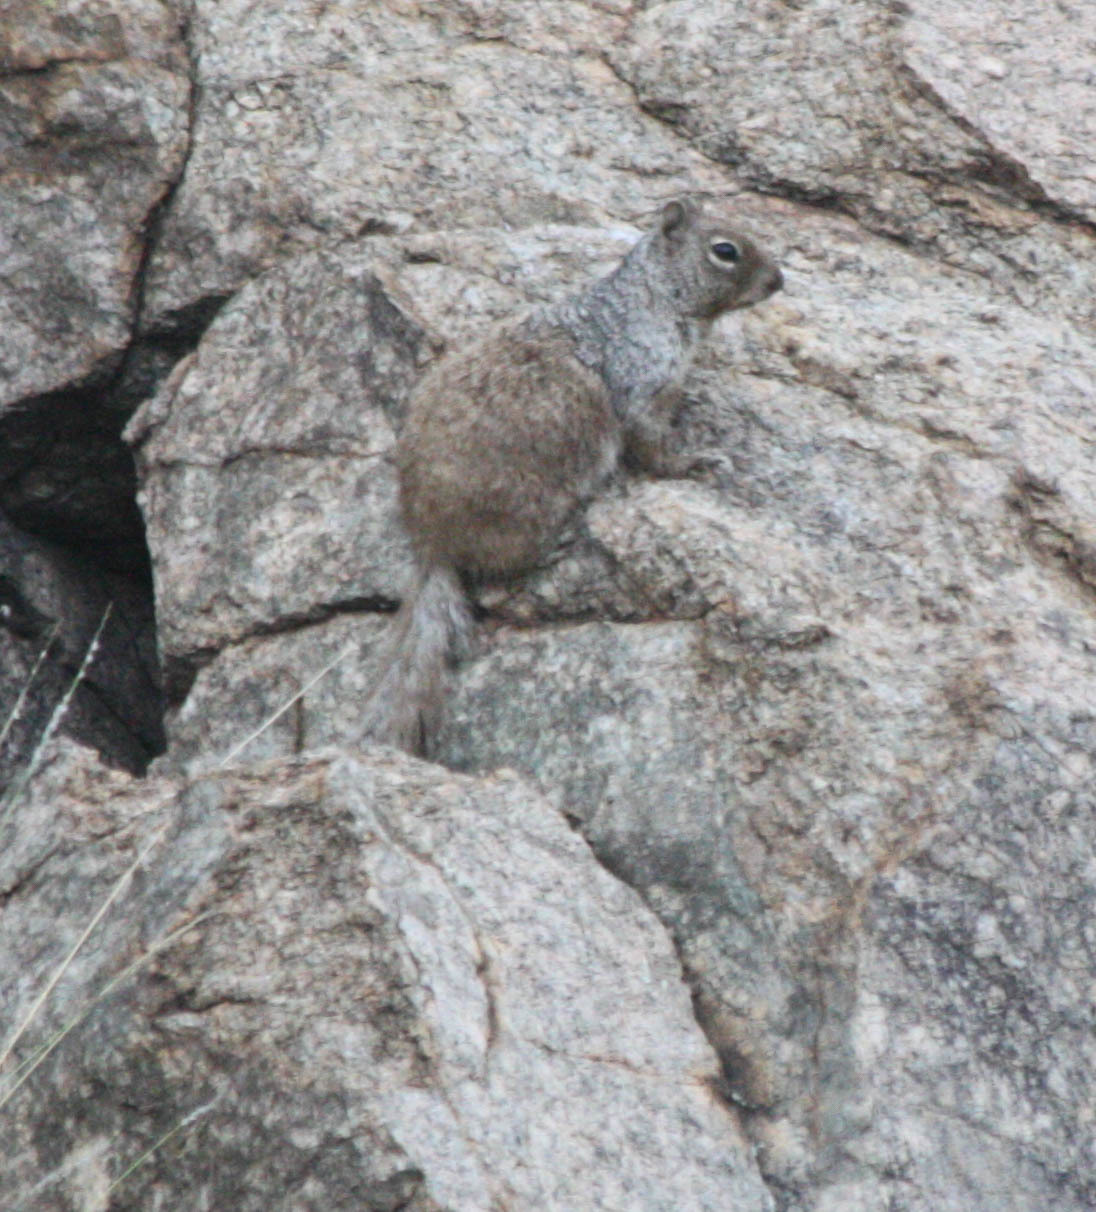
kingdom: Animalia
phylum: Chordata
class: Mammalia
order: Rodentia
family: Sciuridae
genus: Otospermophilus
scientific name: Otospermophilus variegatus
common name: Rock squirrel
